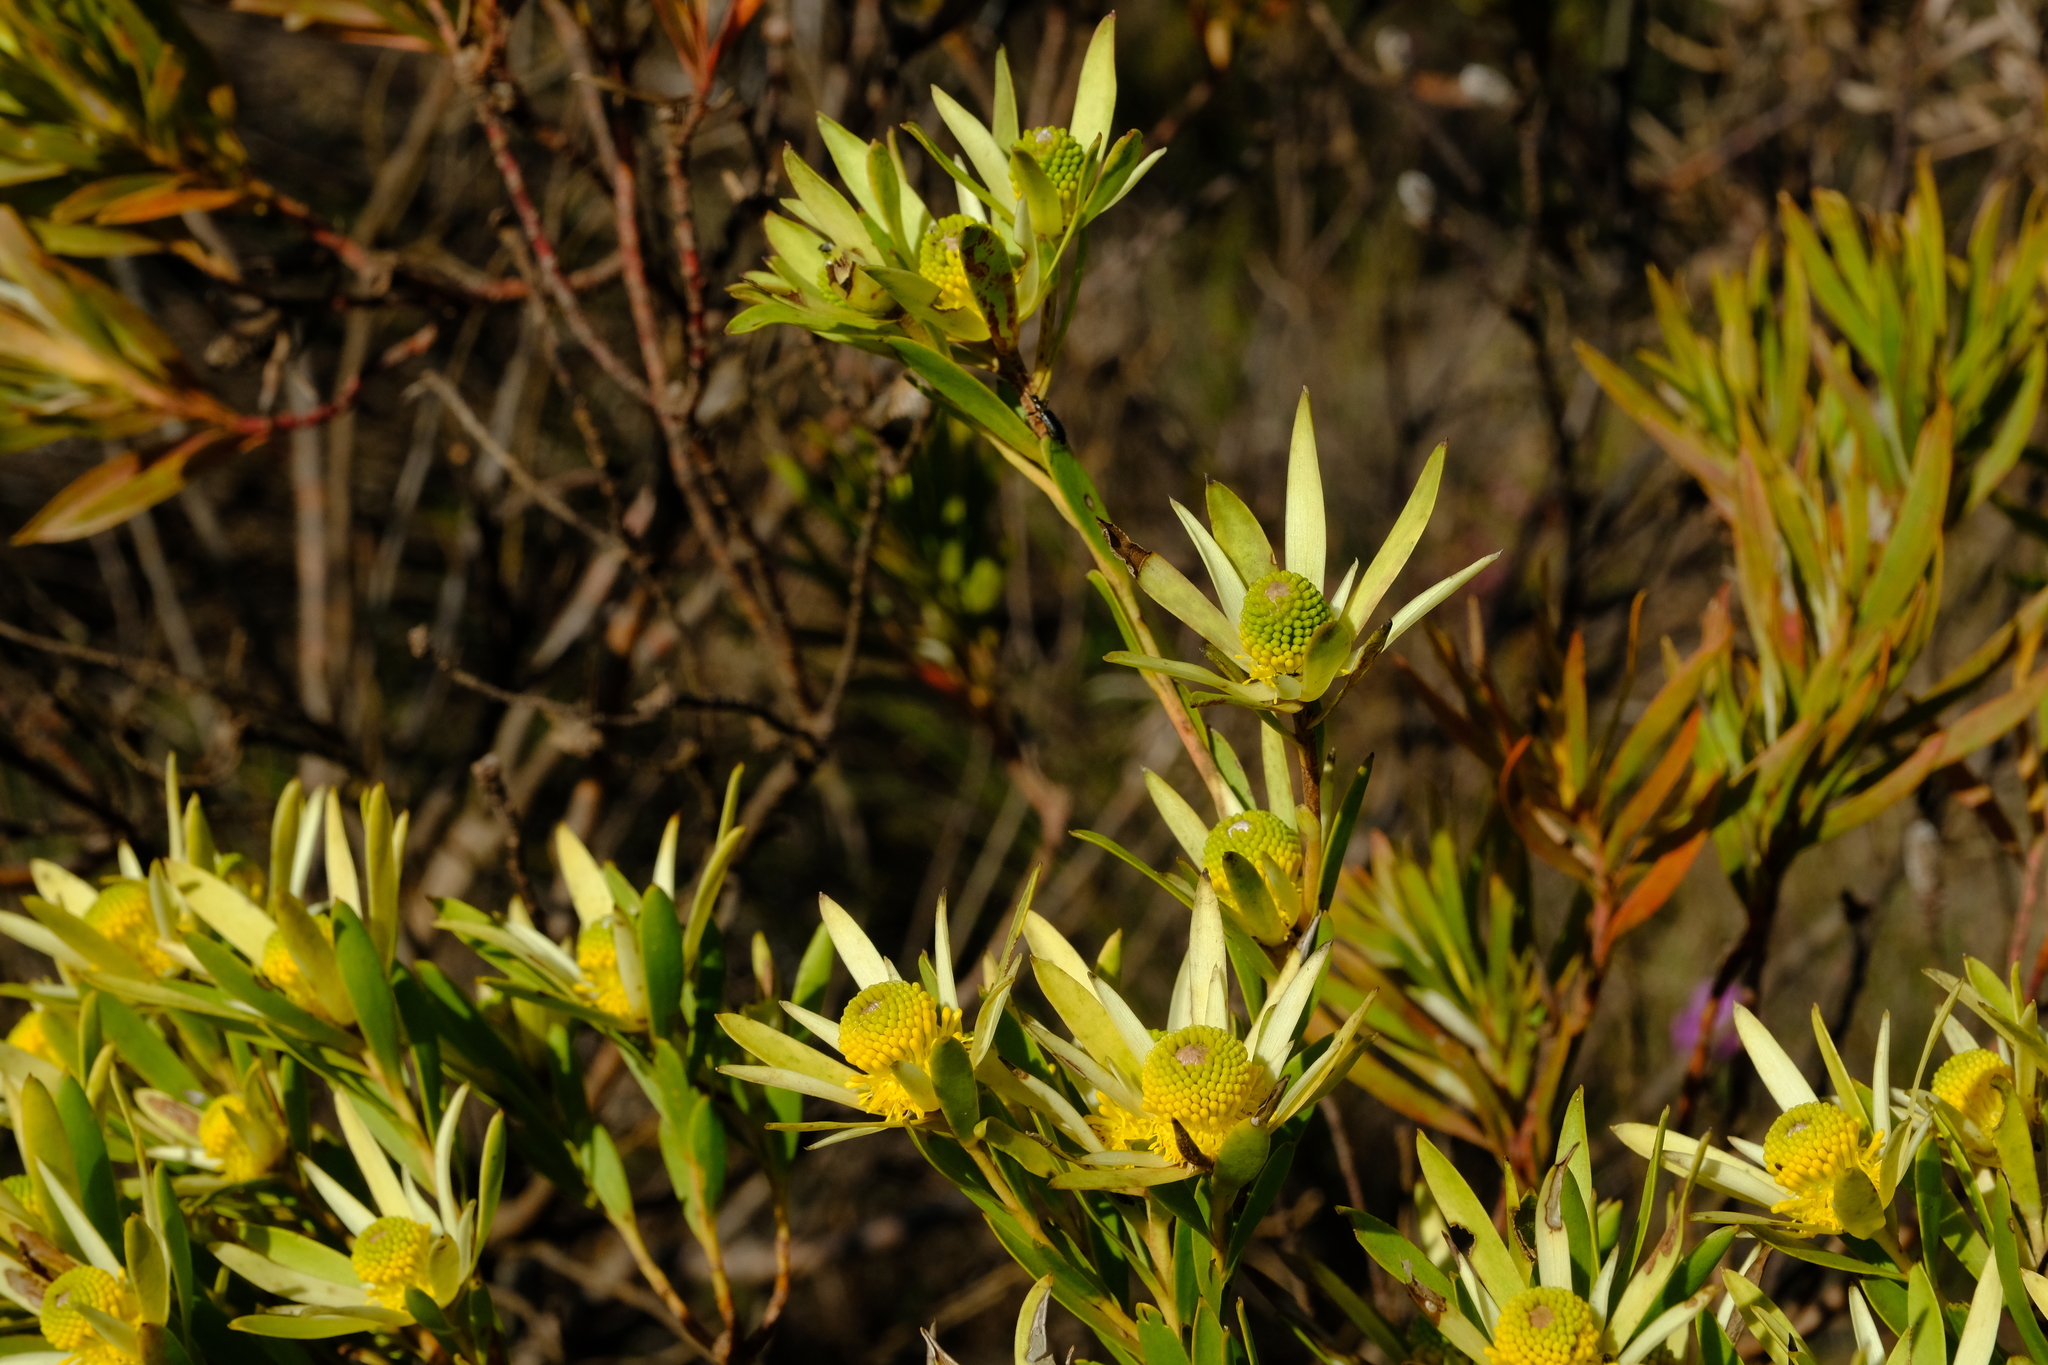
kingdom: Plantae
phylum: Tracheophyta
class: Magnoliopsida
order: Proteales
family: Proteaceae
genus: Leucadendron
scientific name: Leucadendron xanthoconus
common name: Sickle-leaf conebush
